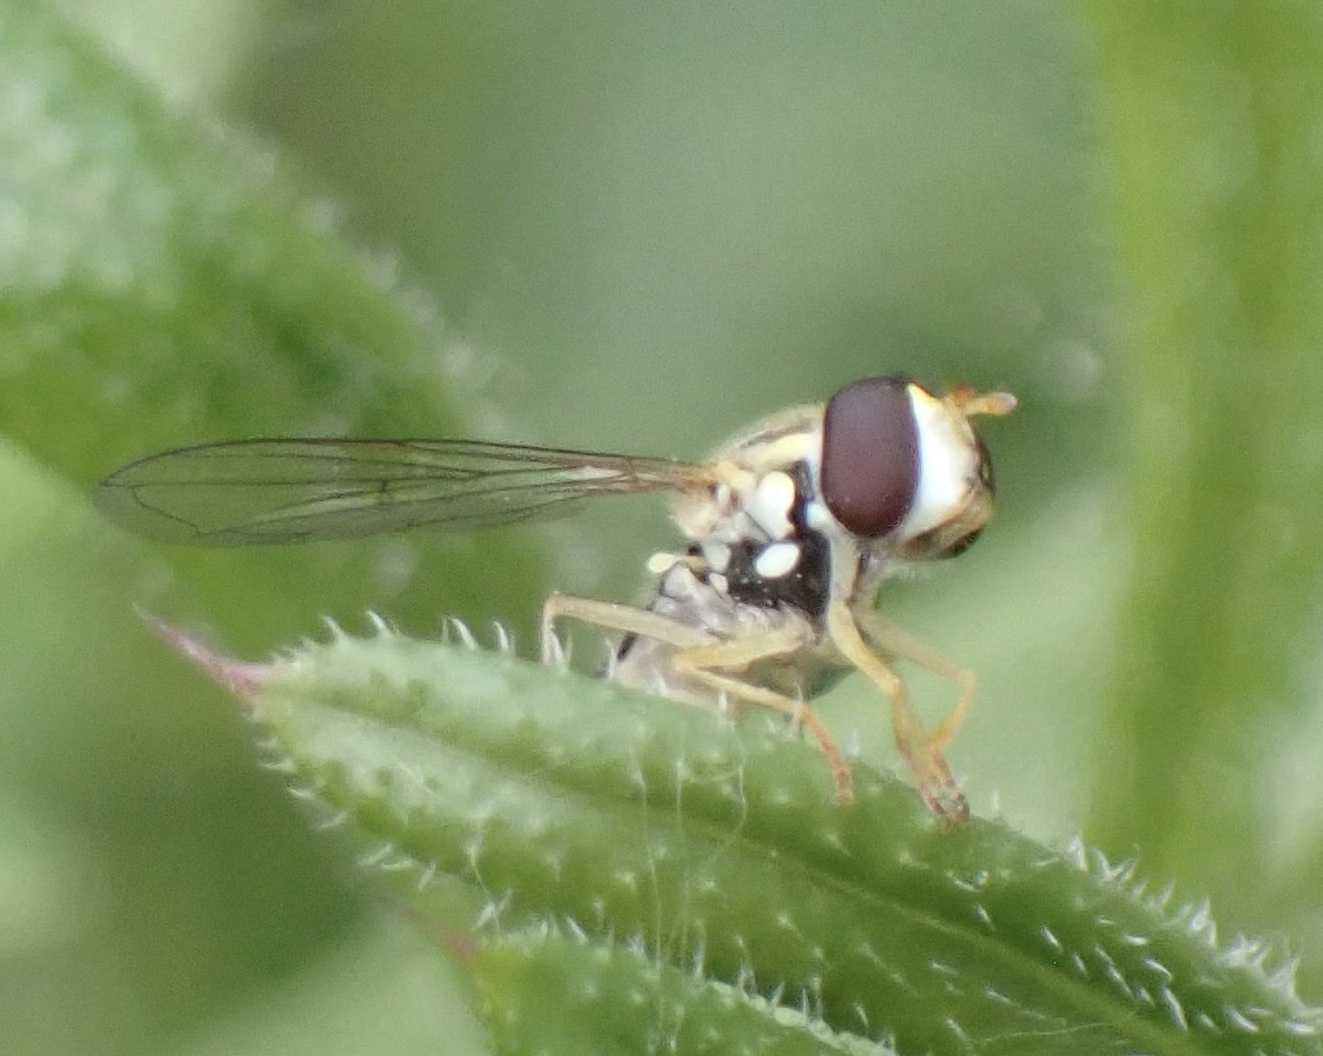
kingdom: Animalia
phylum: Arthropoda
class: Insecta
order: Diptera
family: Syrphidae
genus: Sphaerophoria
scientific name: Sphaerophoria
